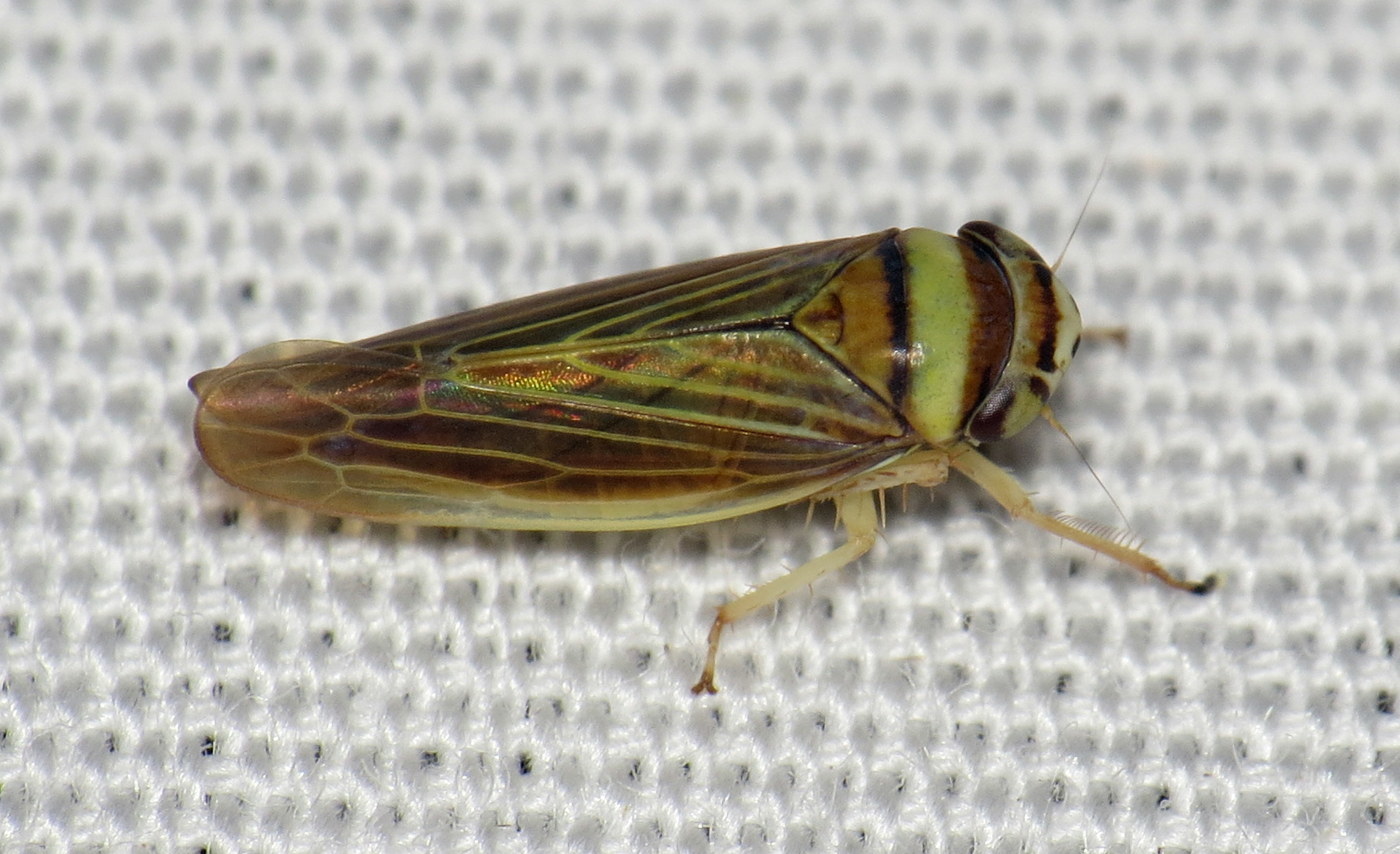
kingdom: Animalia
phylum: Arthropoda
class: Insecta
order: Hemiptera
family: Cicadellidae
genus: Colladonus
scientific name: Colladonus brunneus
